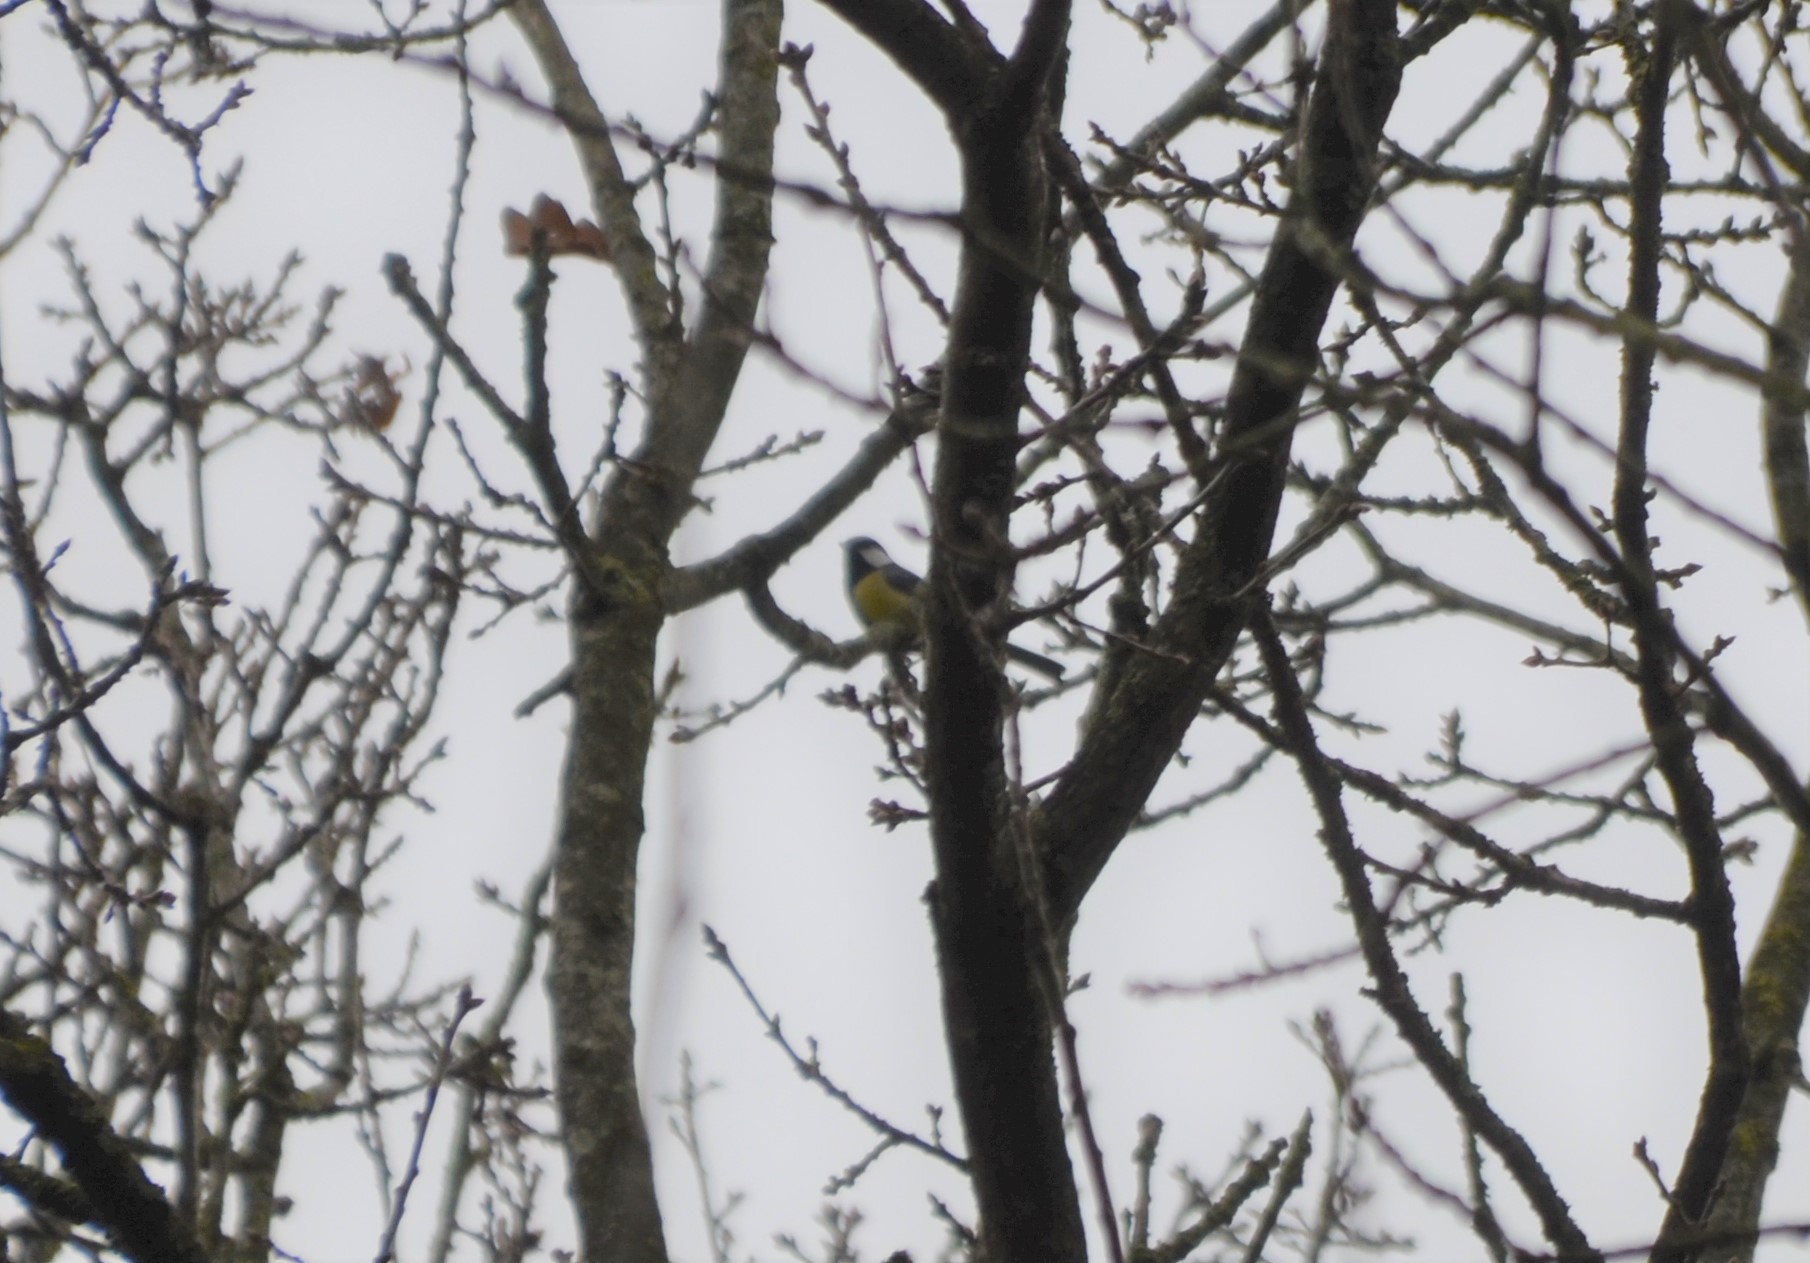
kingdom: Animalia
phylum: Chordata
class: Aves
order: Passeriformes
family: Paridae
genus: Parus
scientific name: Parus major
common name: Great tit
